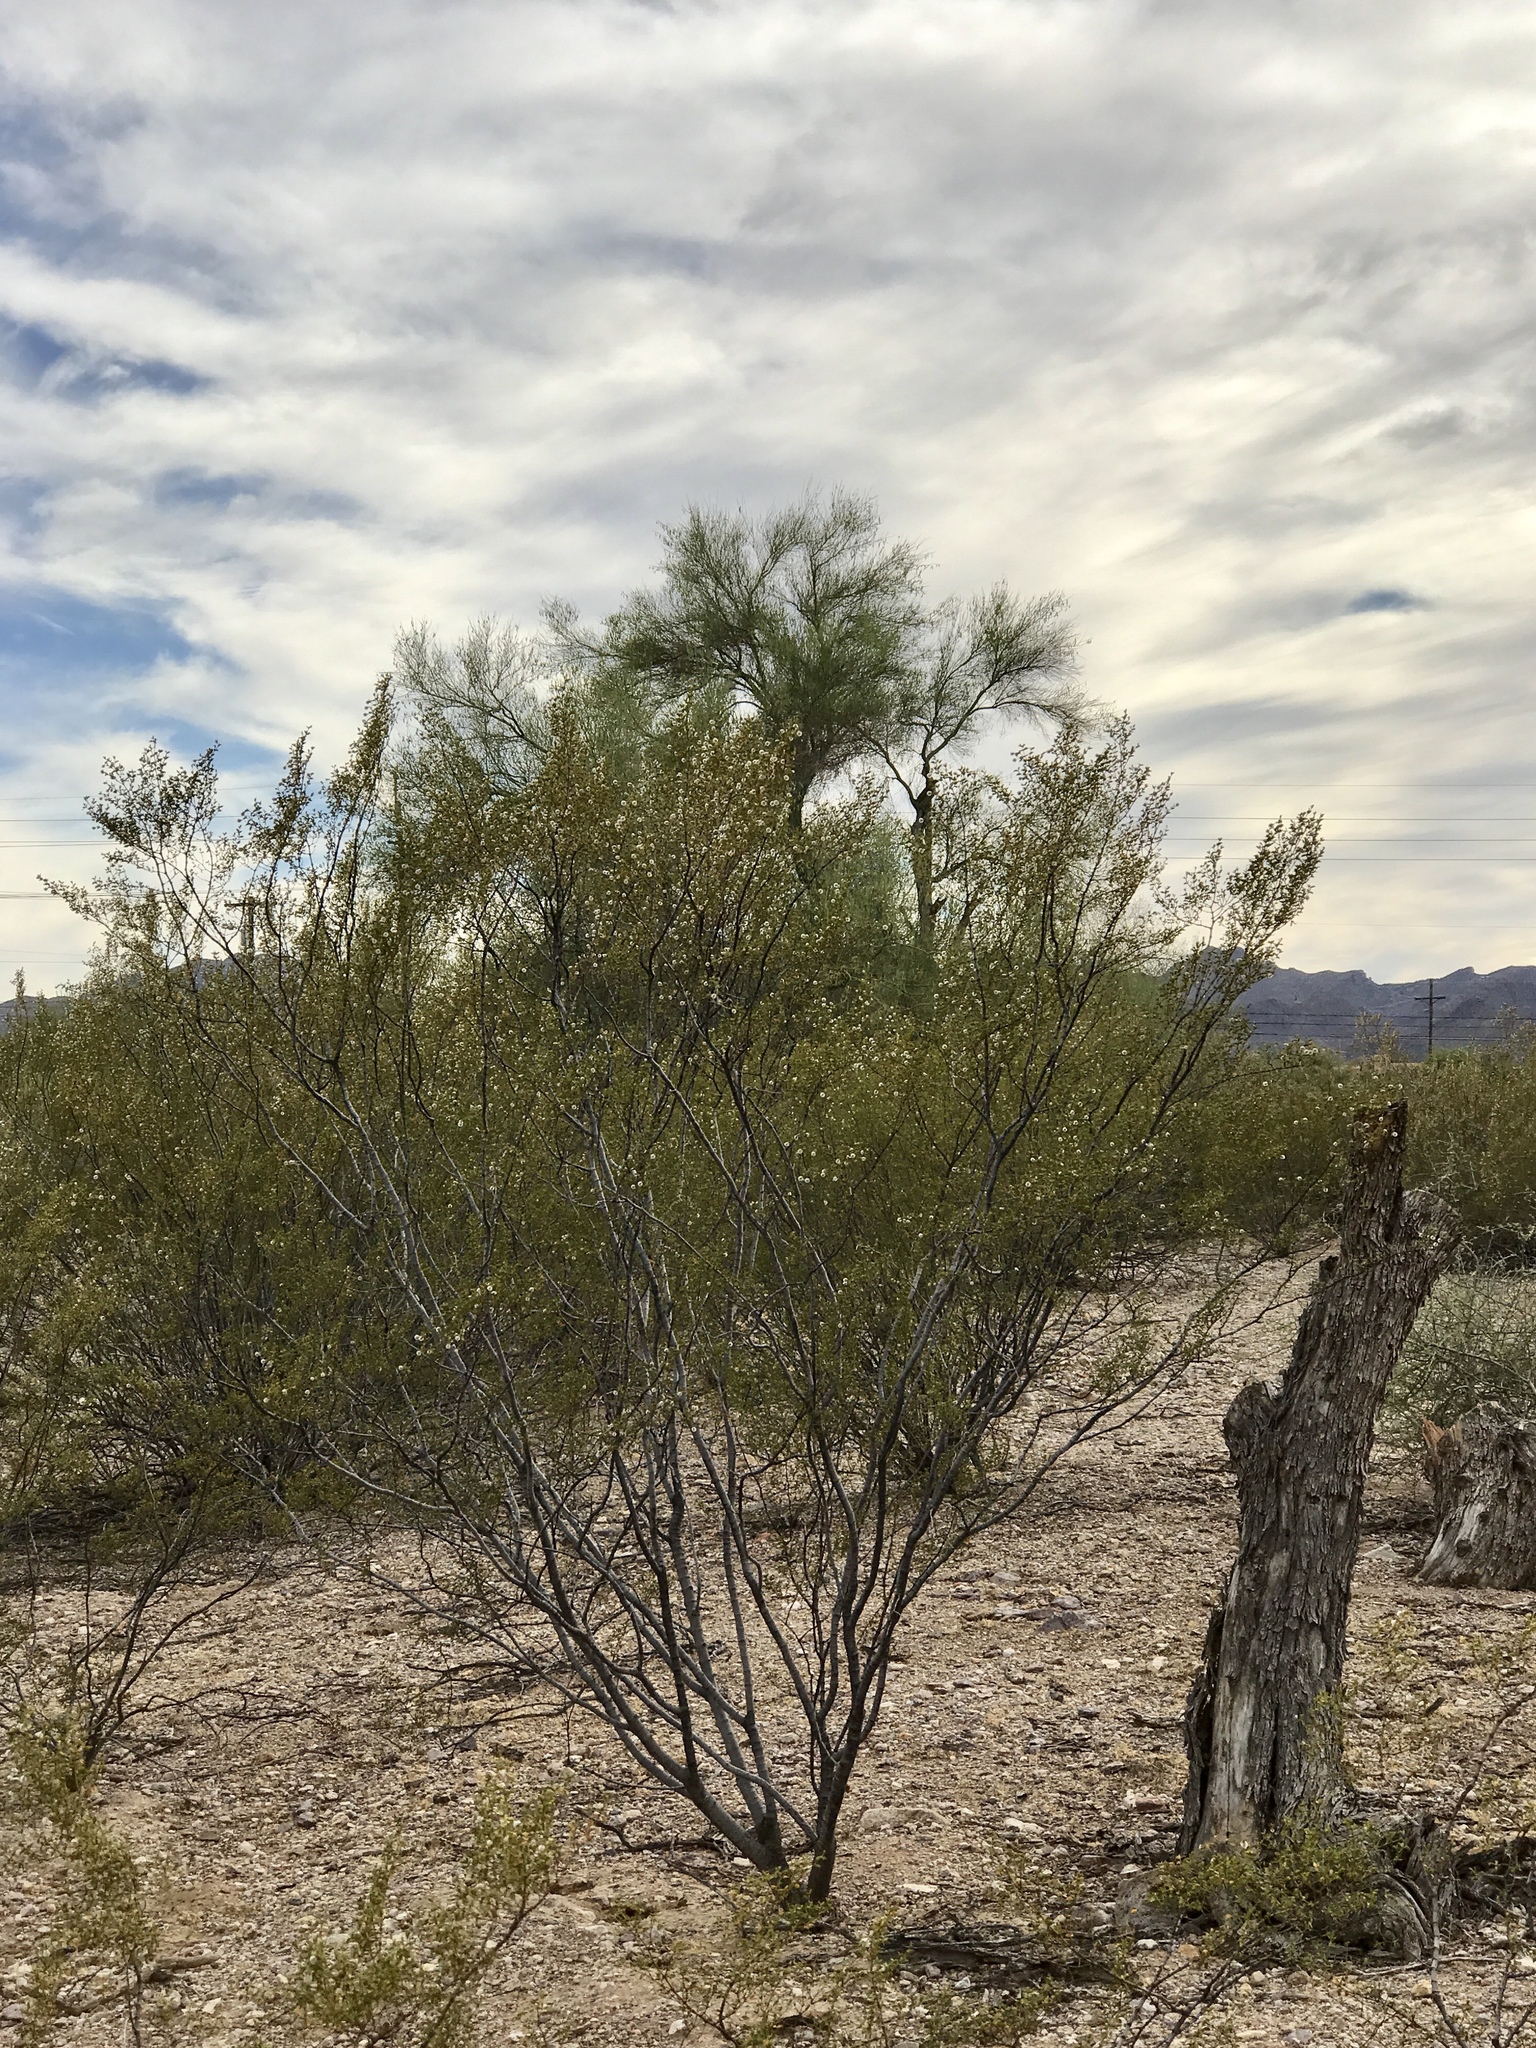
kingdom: Plantae
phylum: Tracheophyta
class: Magnoliopsida
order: Zygophyllales
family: Zygophyllaceae
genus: Larrea
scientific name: Larrea tridentata
